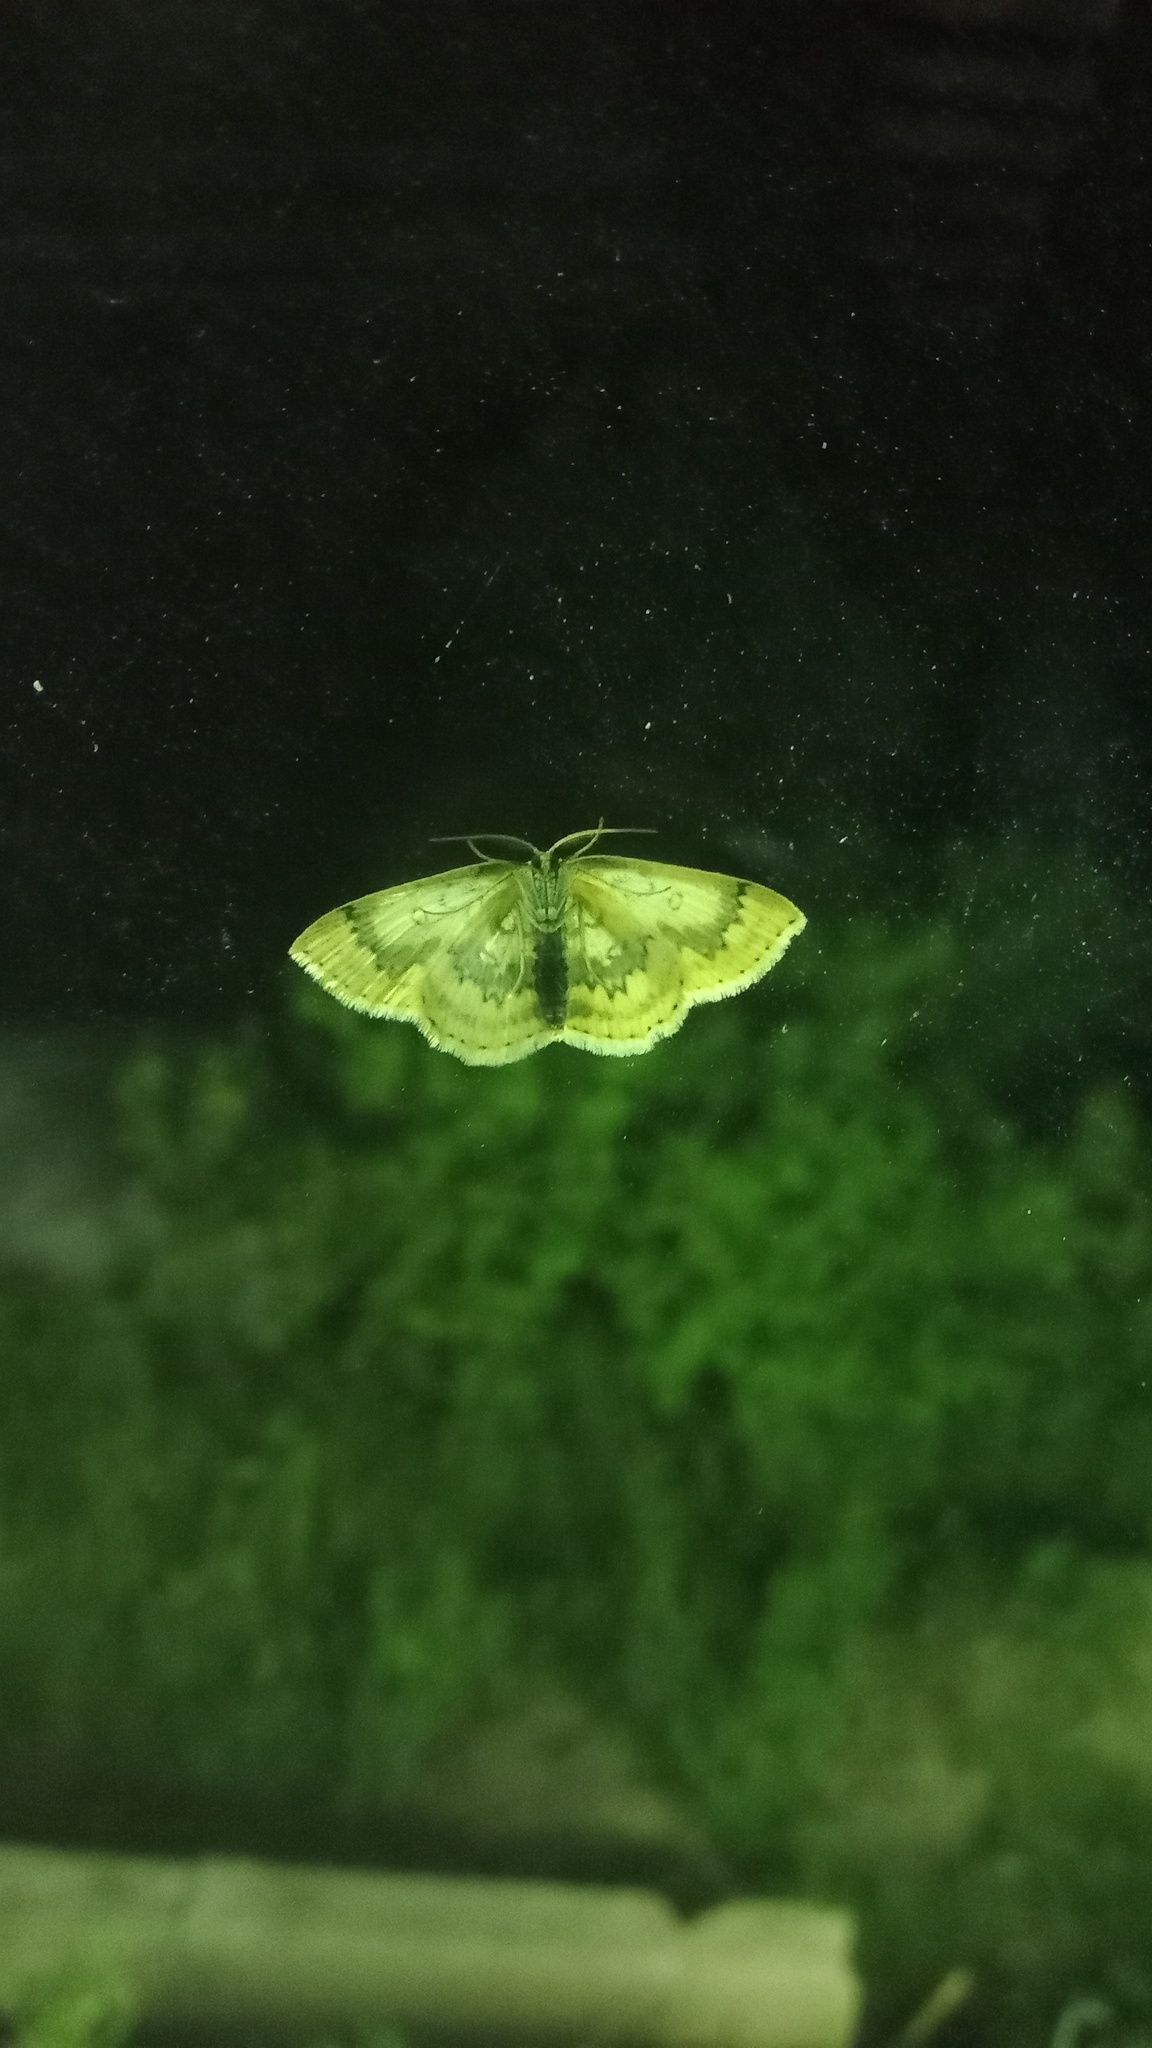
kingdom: Animalia
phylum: Arthropoda
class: Insecta
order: Lepidoptera
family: Geometridae
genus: Cyclophora
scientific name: Cyclophora annularia
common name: Mocha
